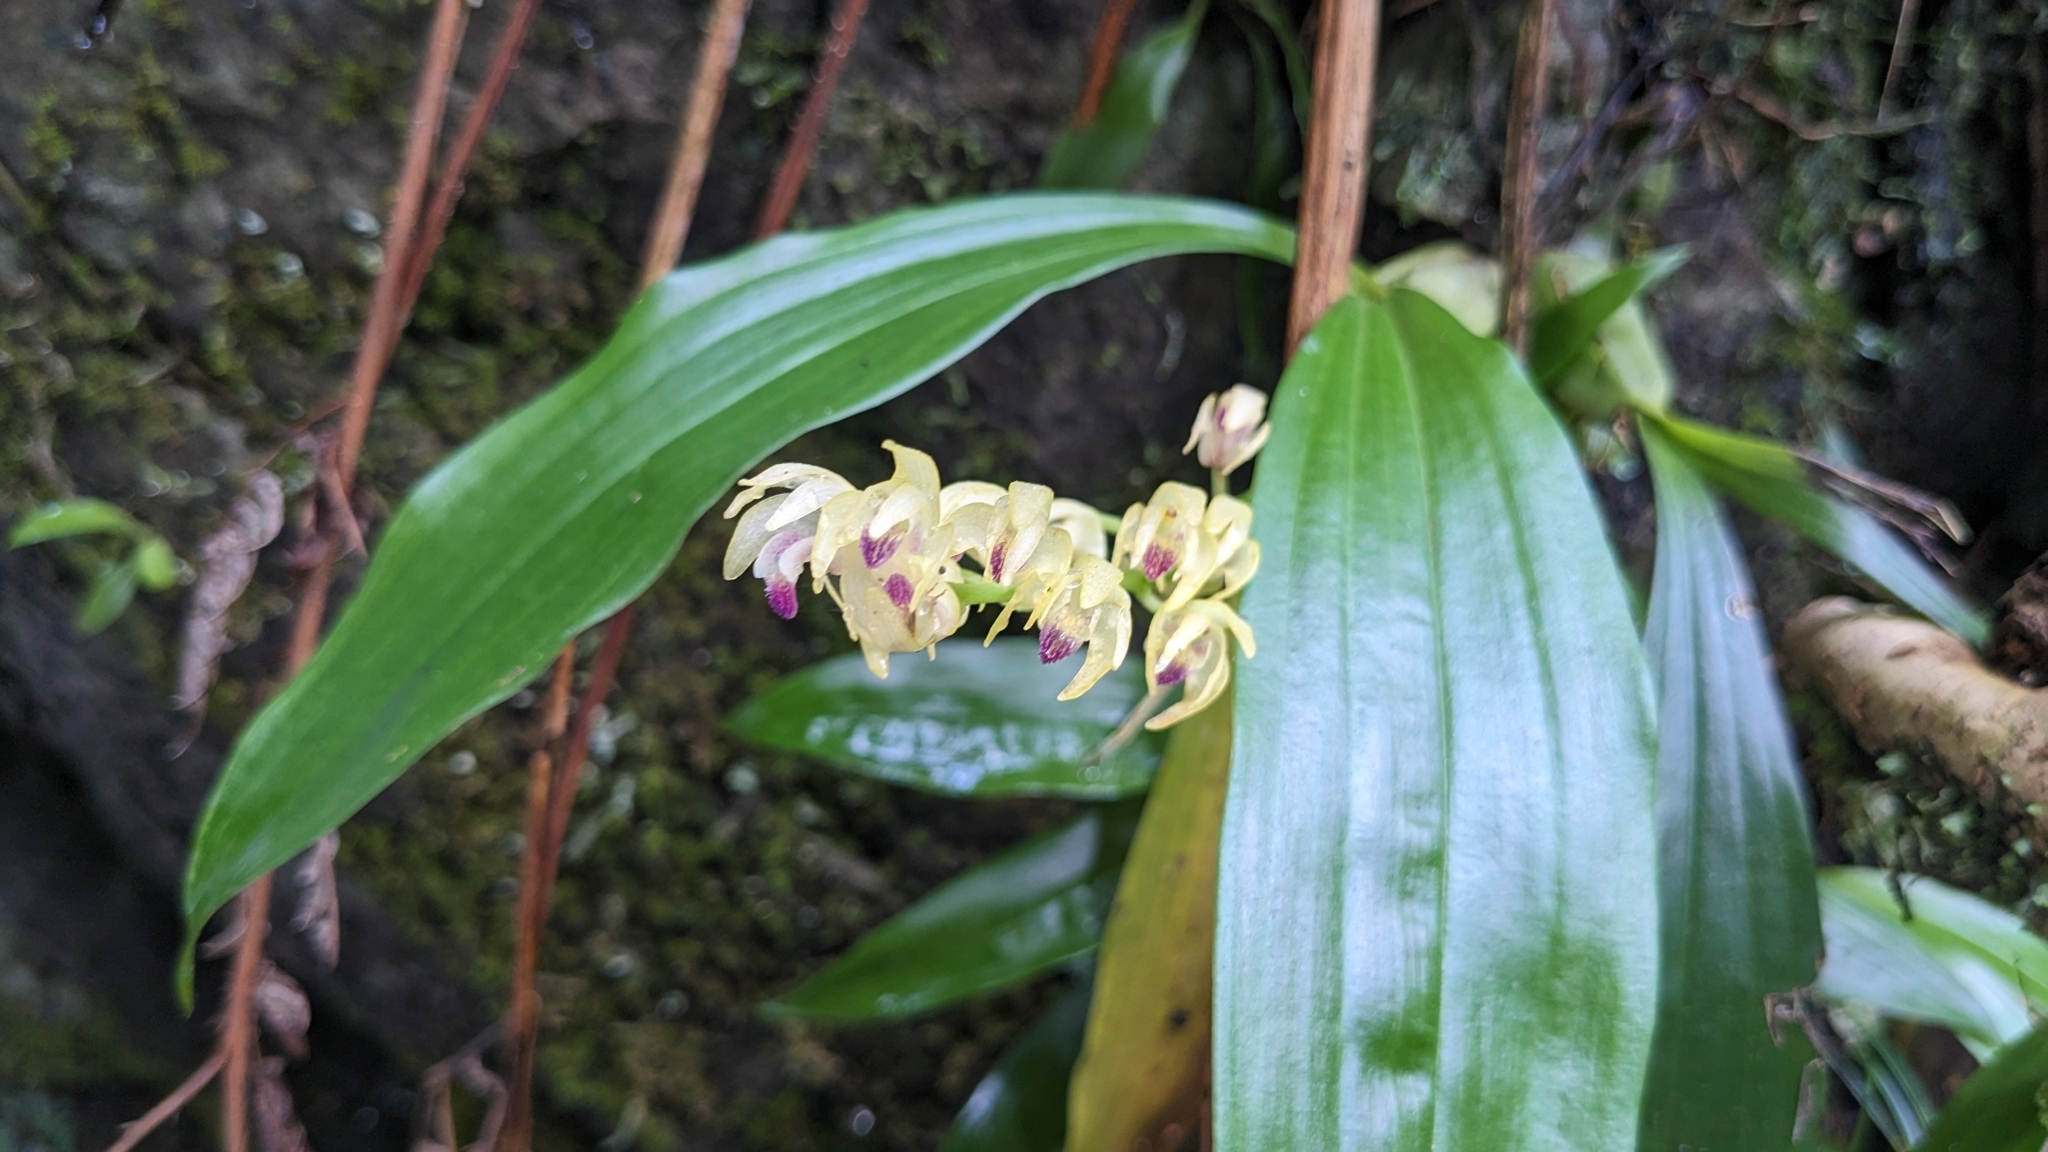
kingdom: Plantae
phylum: Tracheophyta
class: Liliopsida
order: Asparagales
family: Orchidaceae
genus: Eria
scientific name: Eria scabrilinguis
